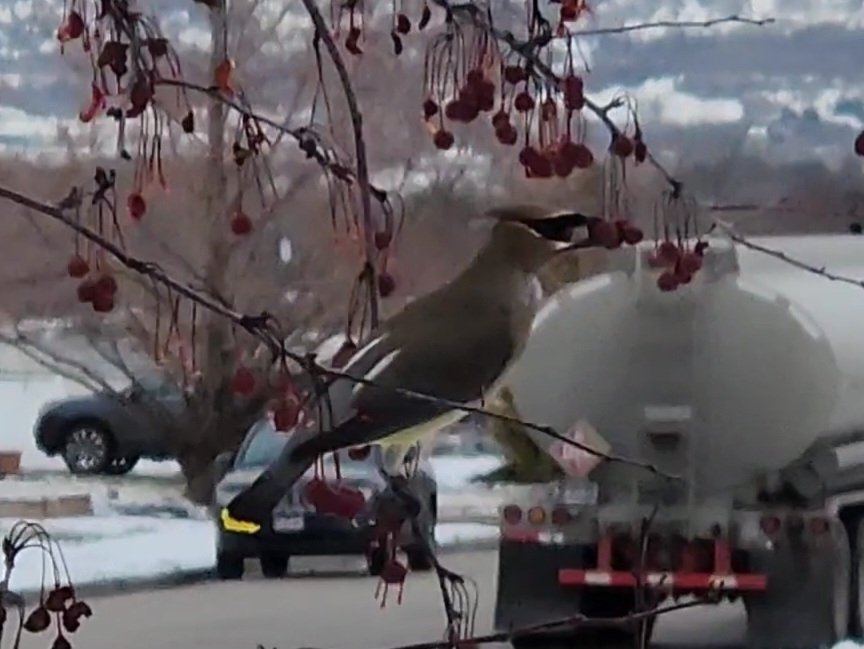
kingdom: Animalia
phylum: Chordata
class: Aves
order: Passeriformes
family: Bombycillidae
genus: Bombycilla
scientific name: Bombycilla cedrorum
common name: Cedar waxwing
